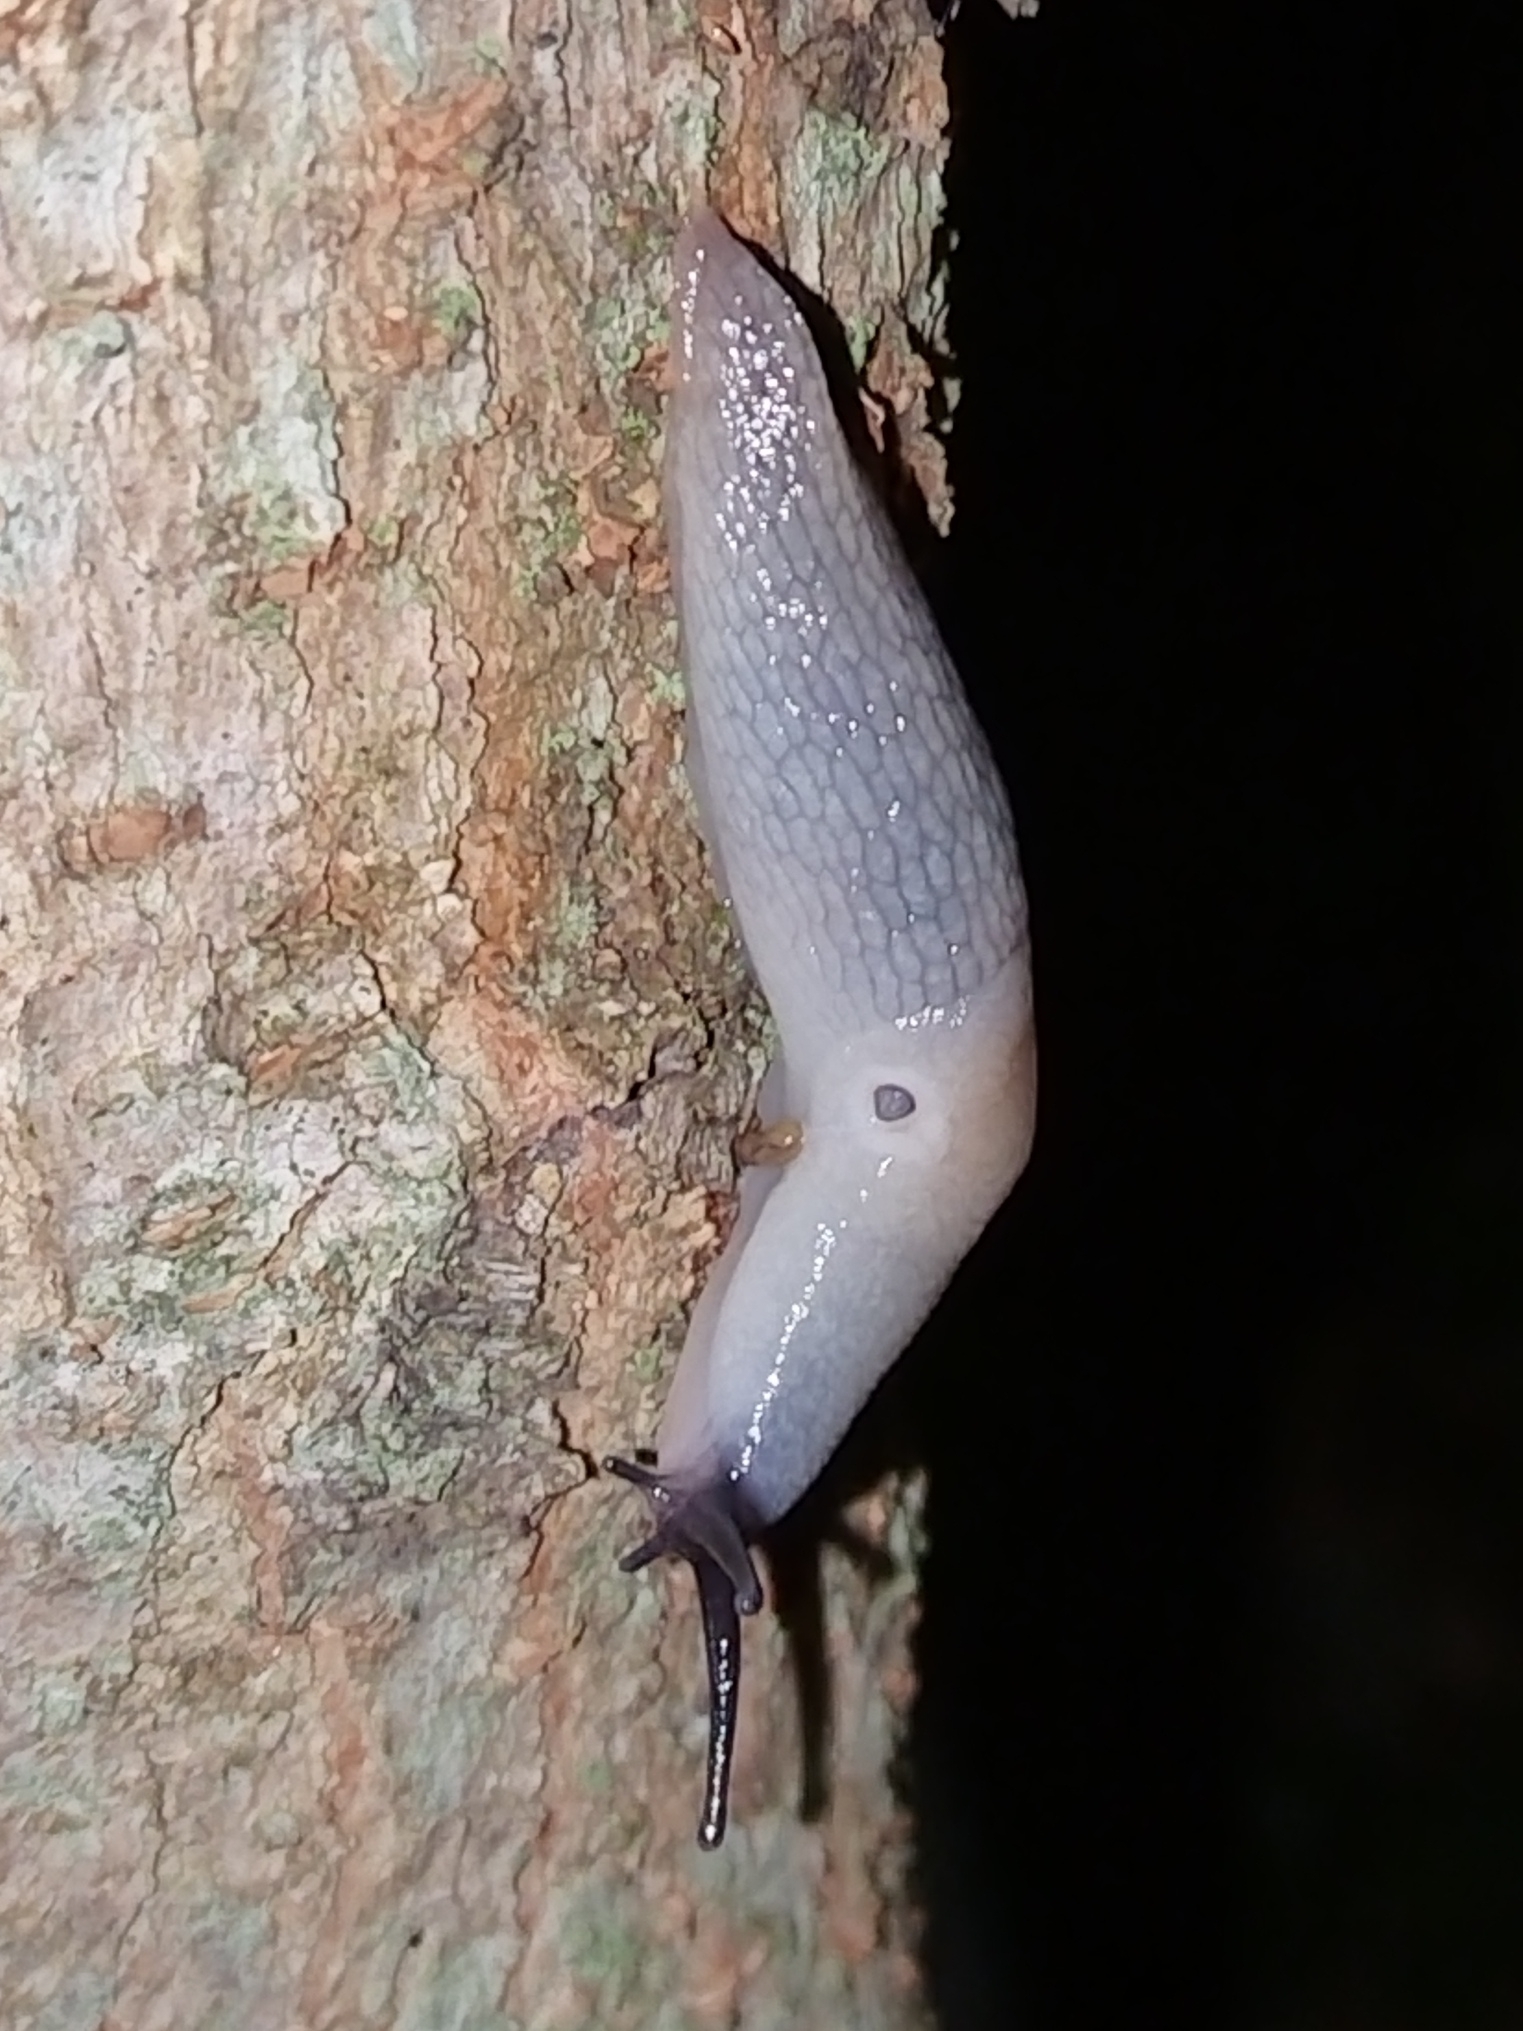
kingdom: Animalia
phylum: Mollusca
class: Gastropoda
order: Stylommatophora
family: Agriolimacidae
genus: Krynickillus
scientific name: Krynickillus melanocephalus
